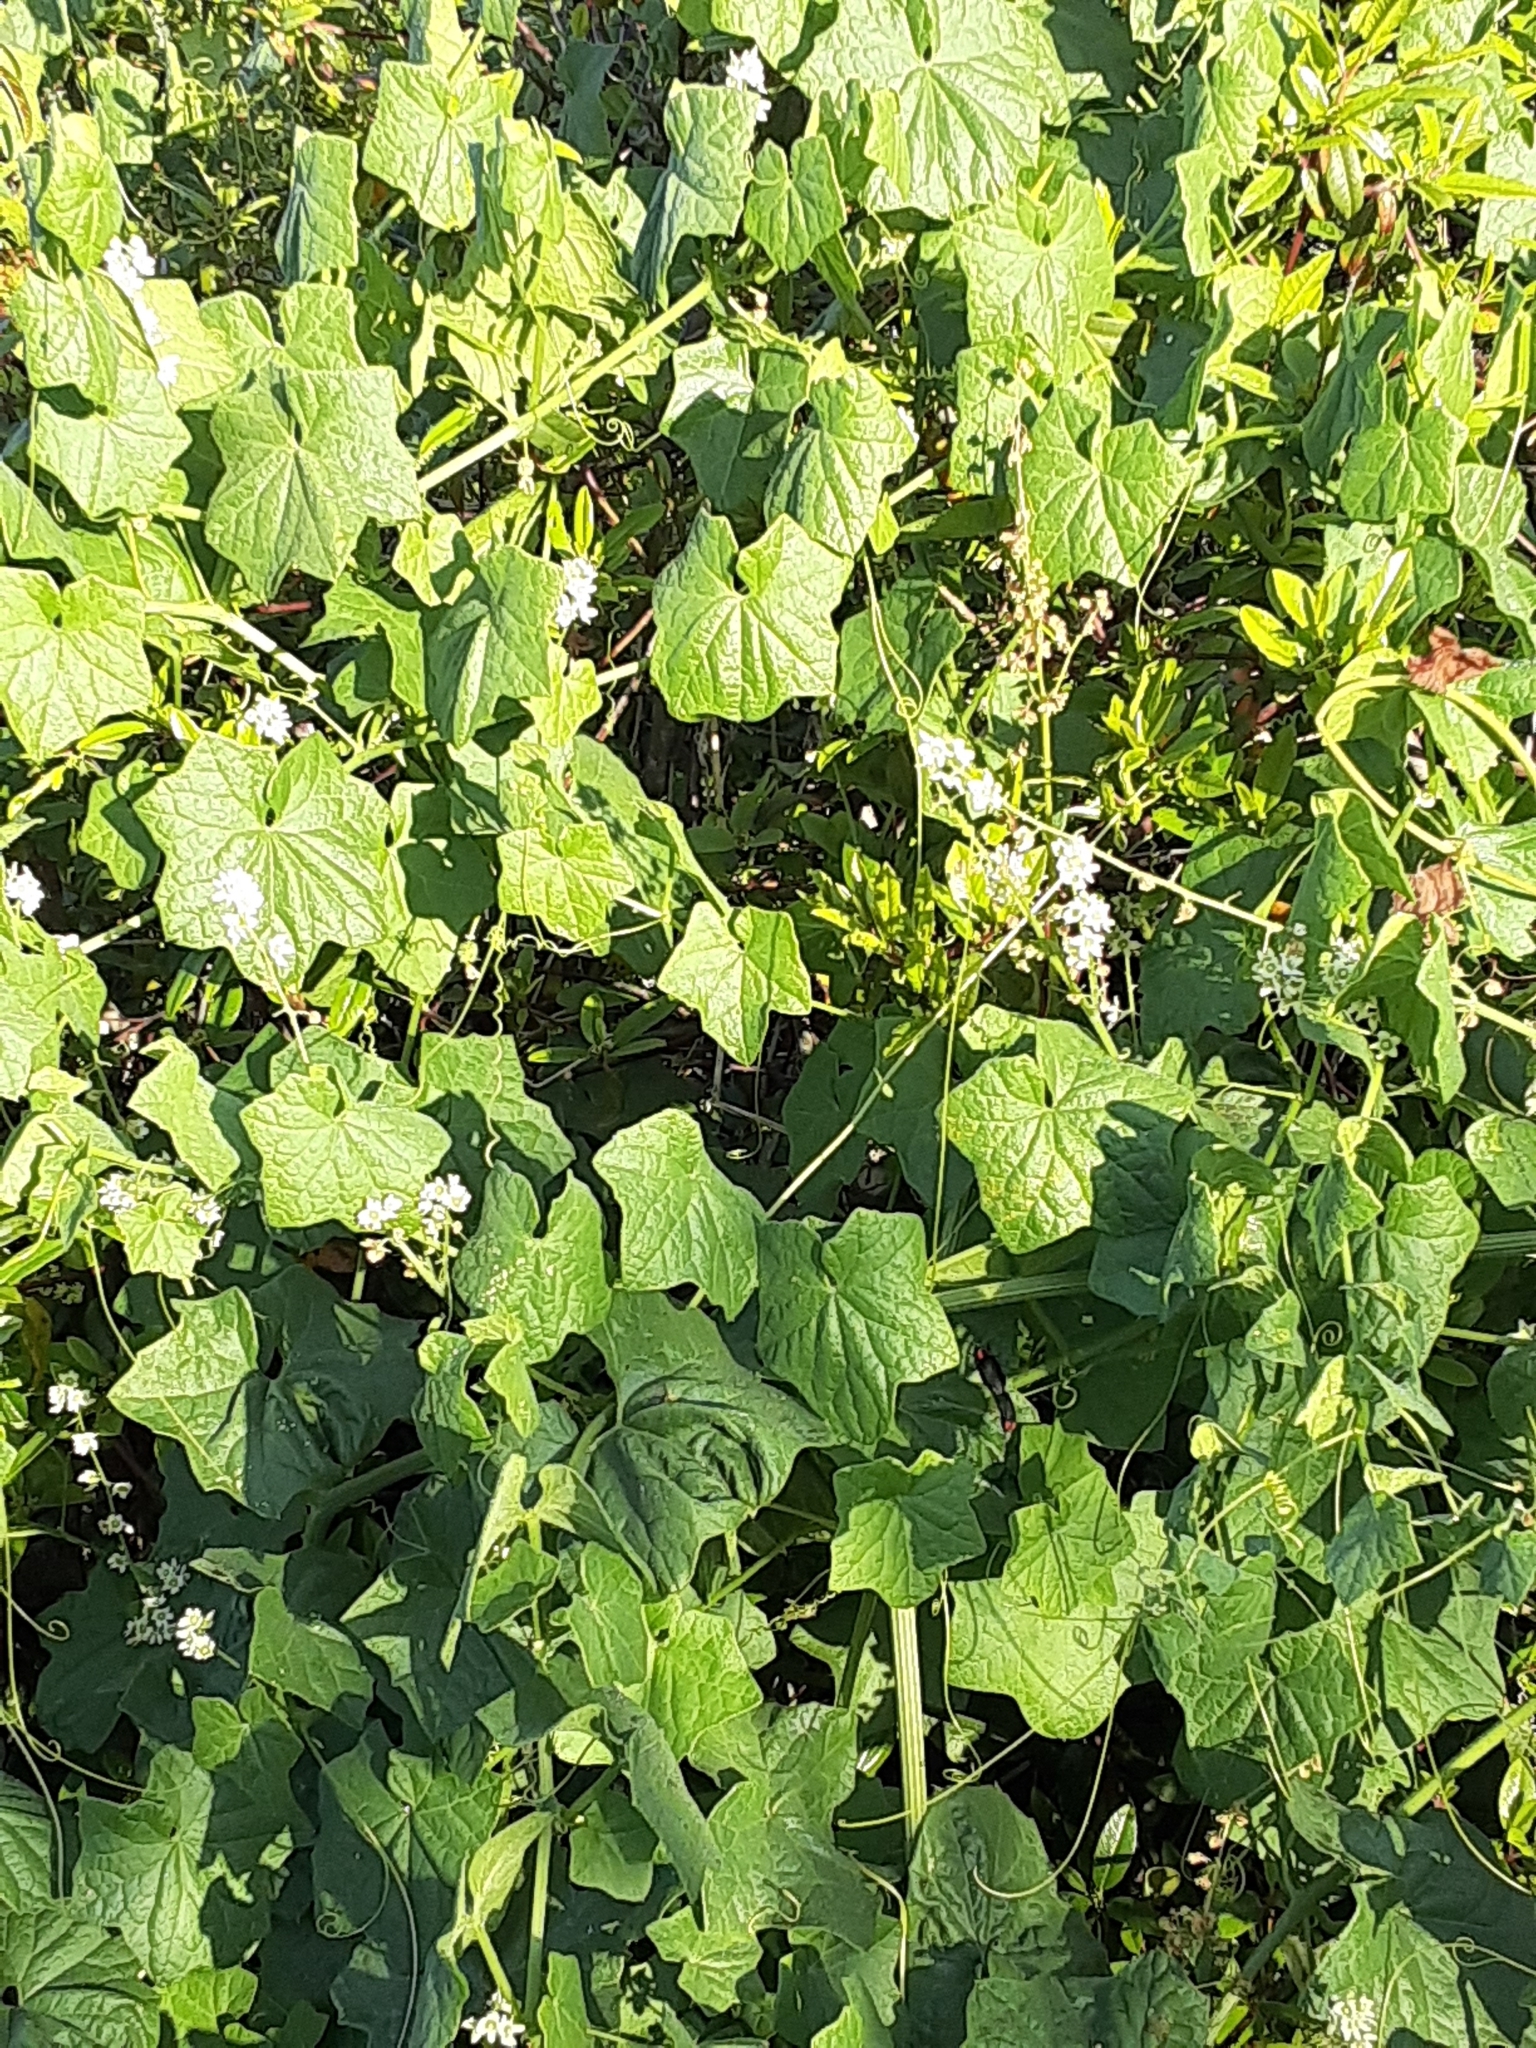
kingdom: Plantae
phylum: Tracheophyta
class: Magnoliopsida
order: Cucurbitales
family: Cucurbitaceae
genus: Marah
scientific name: Marah fabacea
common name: California manroot
